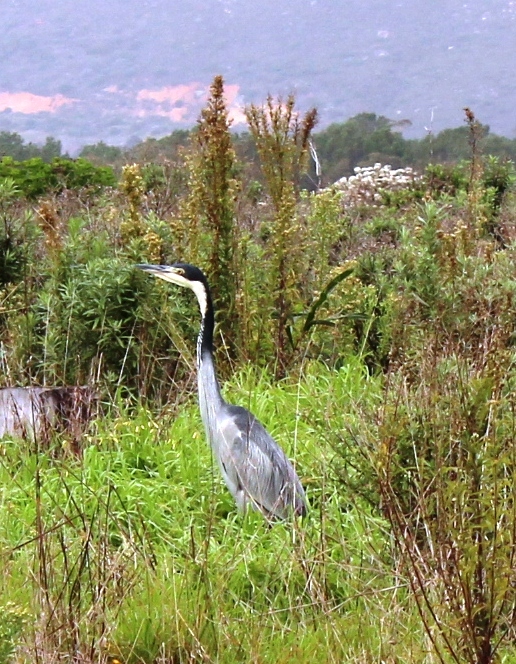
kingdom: Animalia
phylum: Chordata
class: Aves
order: Pelecaniformes
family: Ardeidae
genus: Ardea
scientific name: Ardea melanocephala
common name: Black-headed heron
